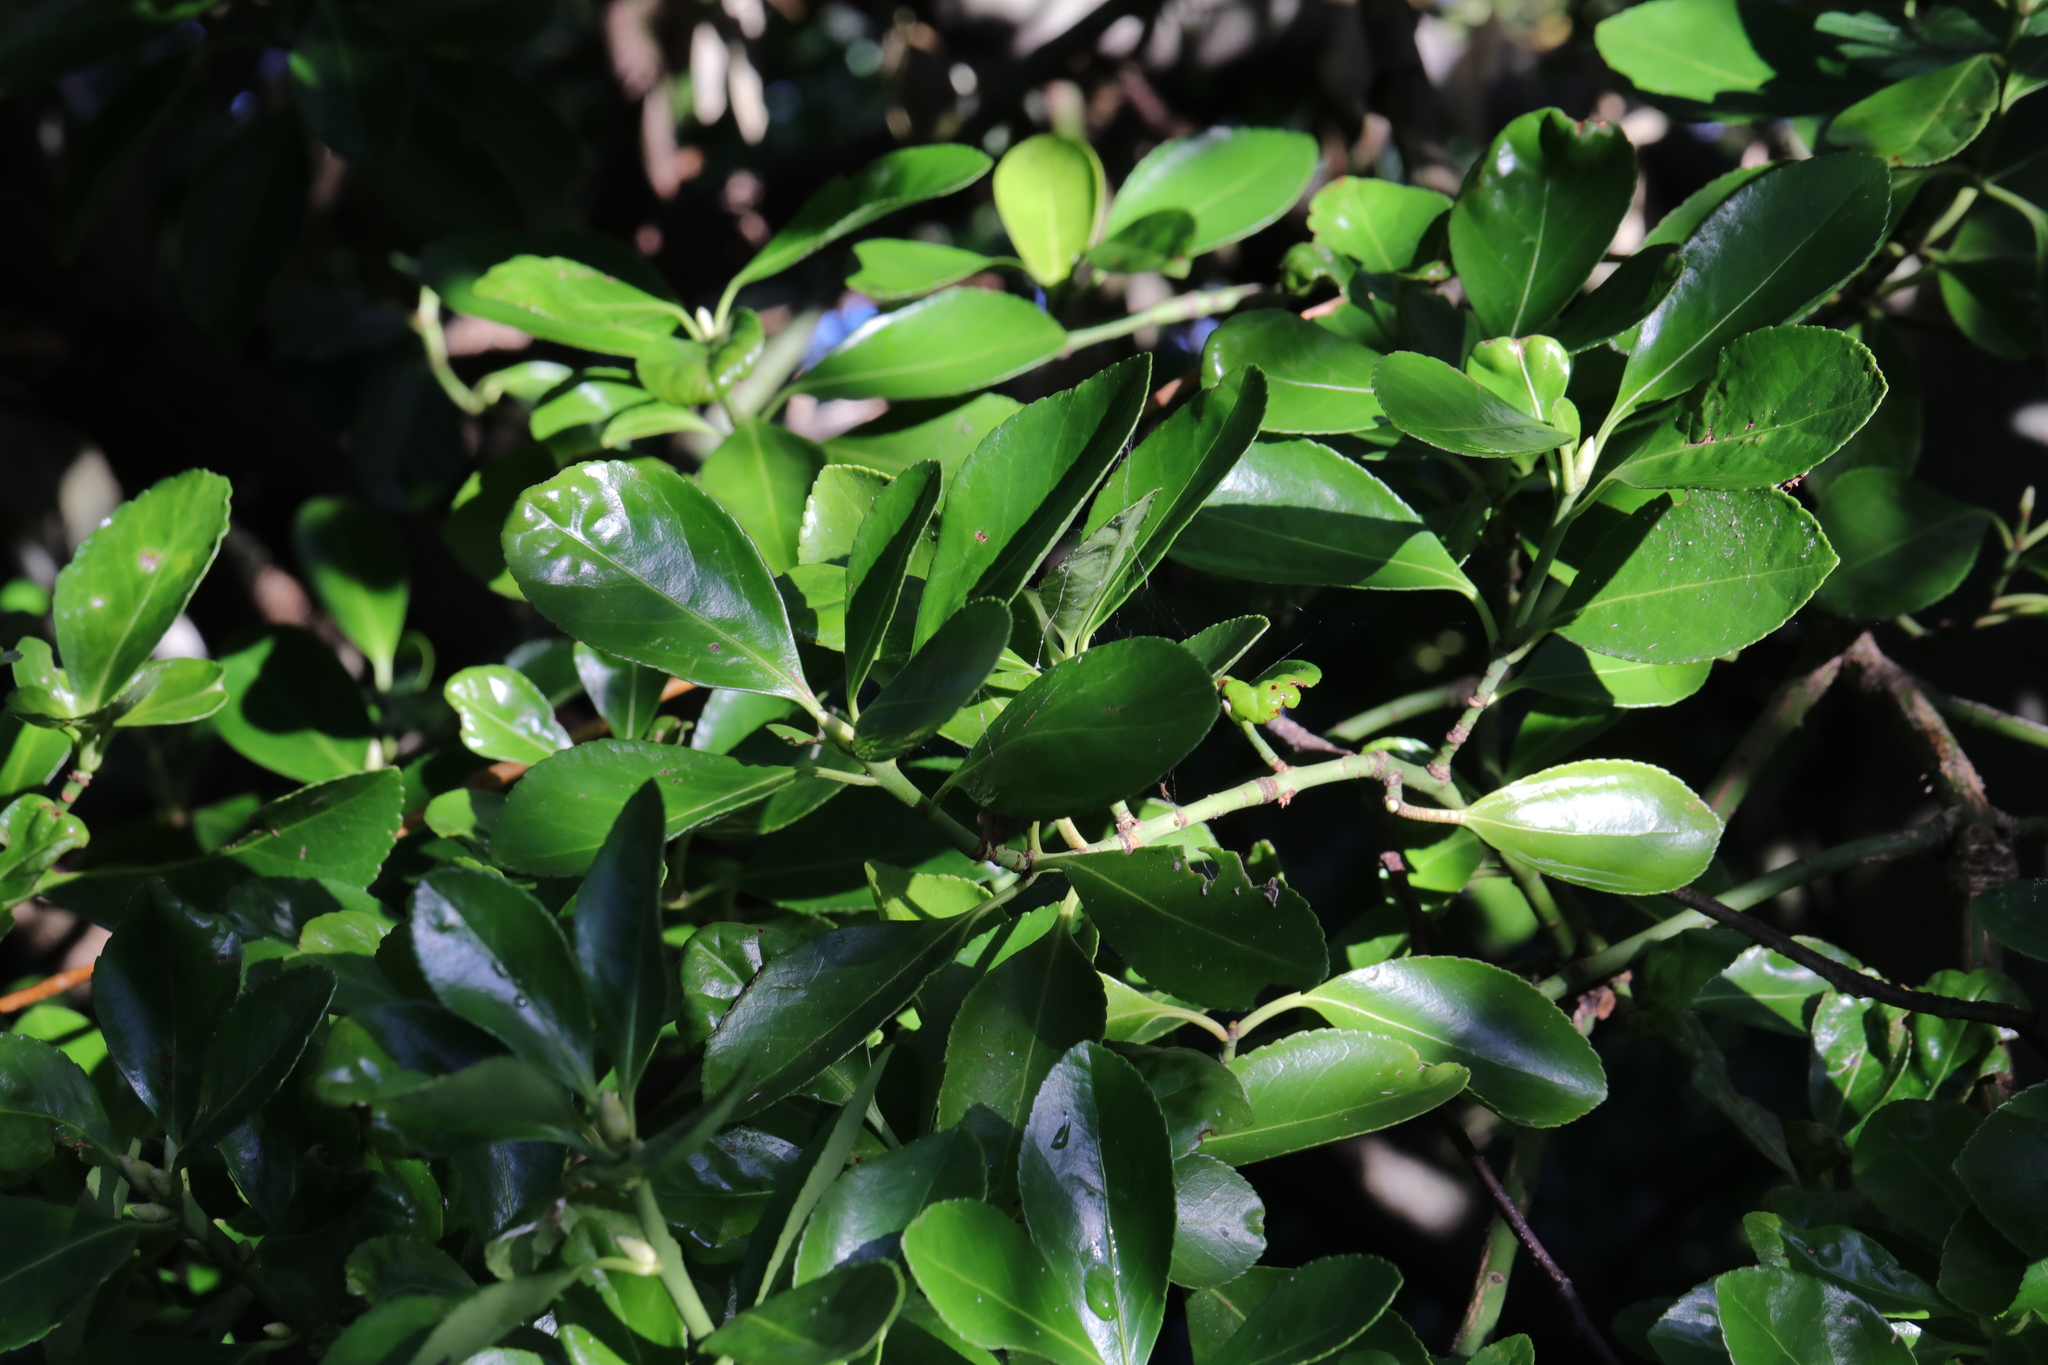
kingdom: Plantae
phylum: Tracheophyta
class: Magnoliopsida
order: Celastrales
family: Celastraceae
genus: Euonymus
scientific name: Euonymus japonicus
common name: Japanese spindletree
